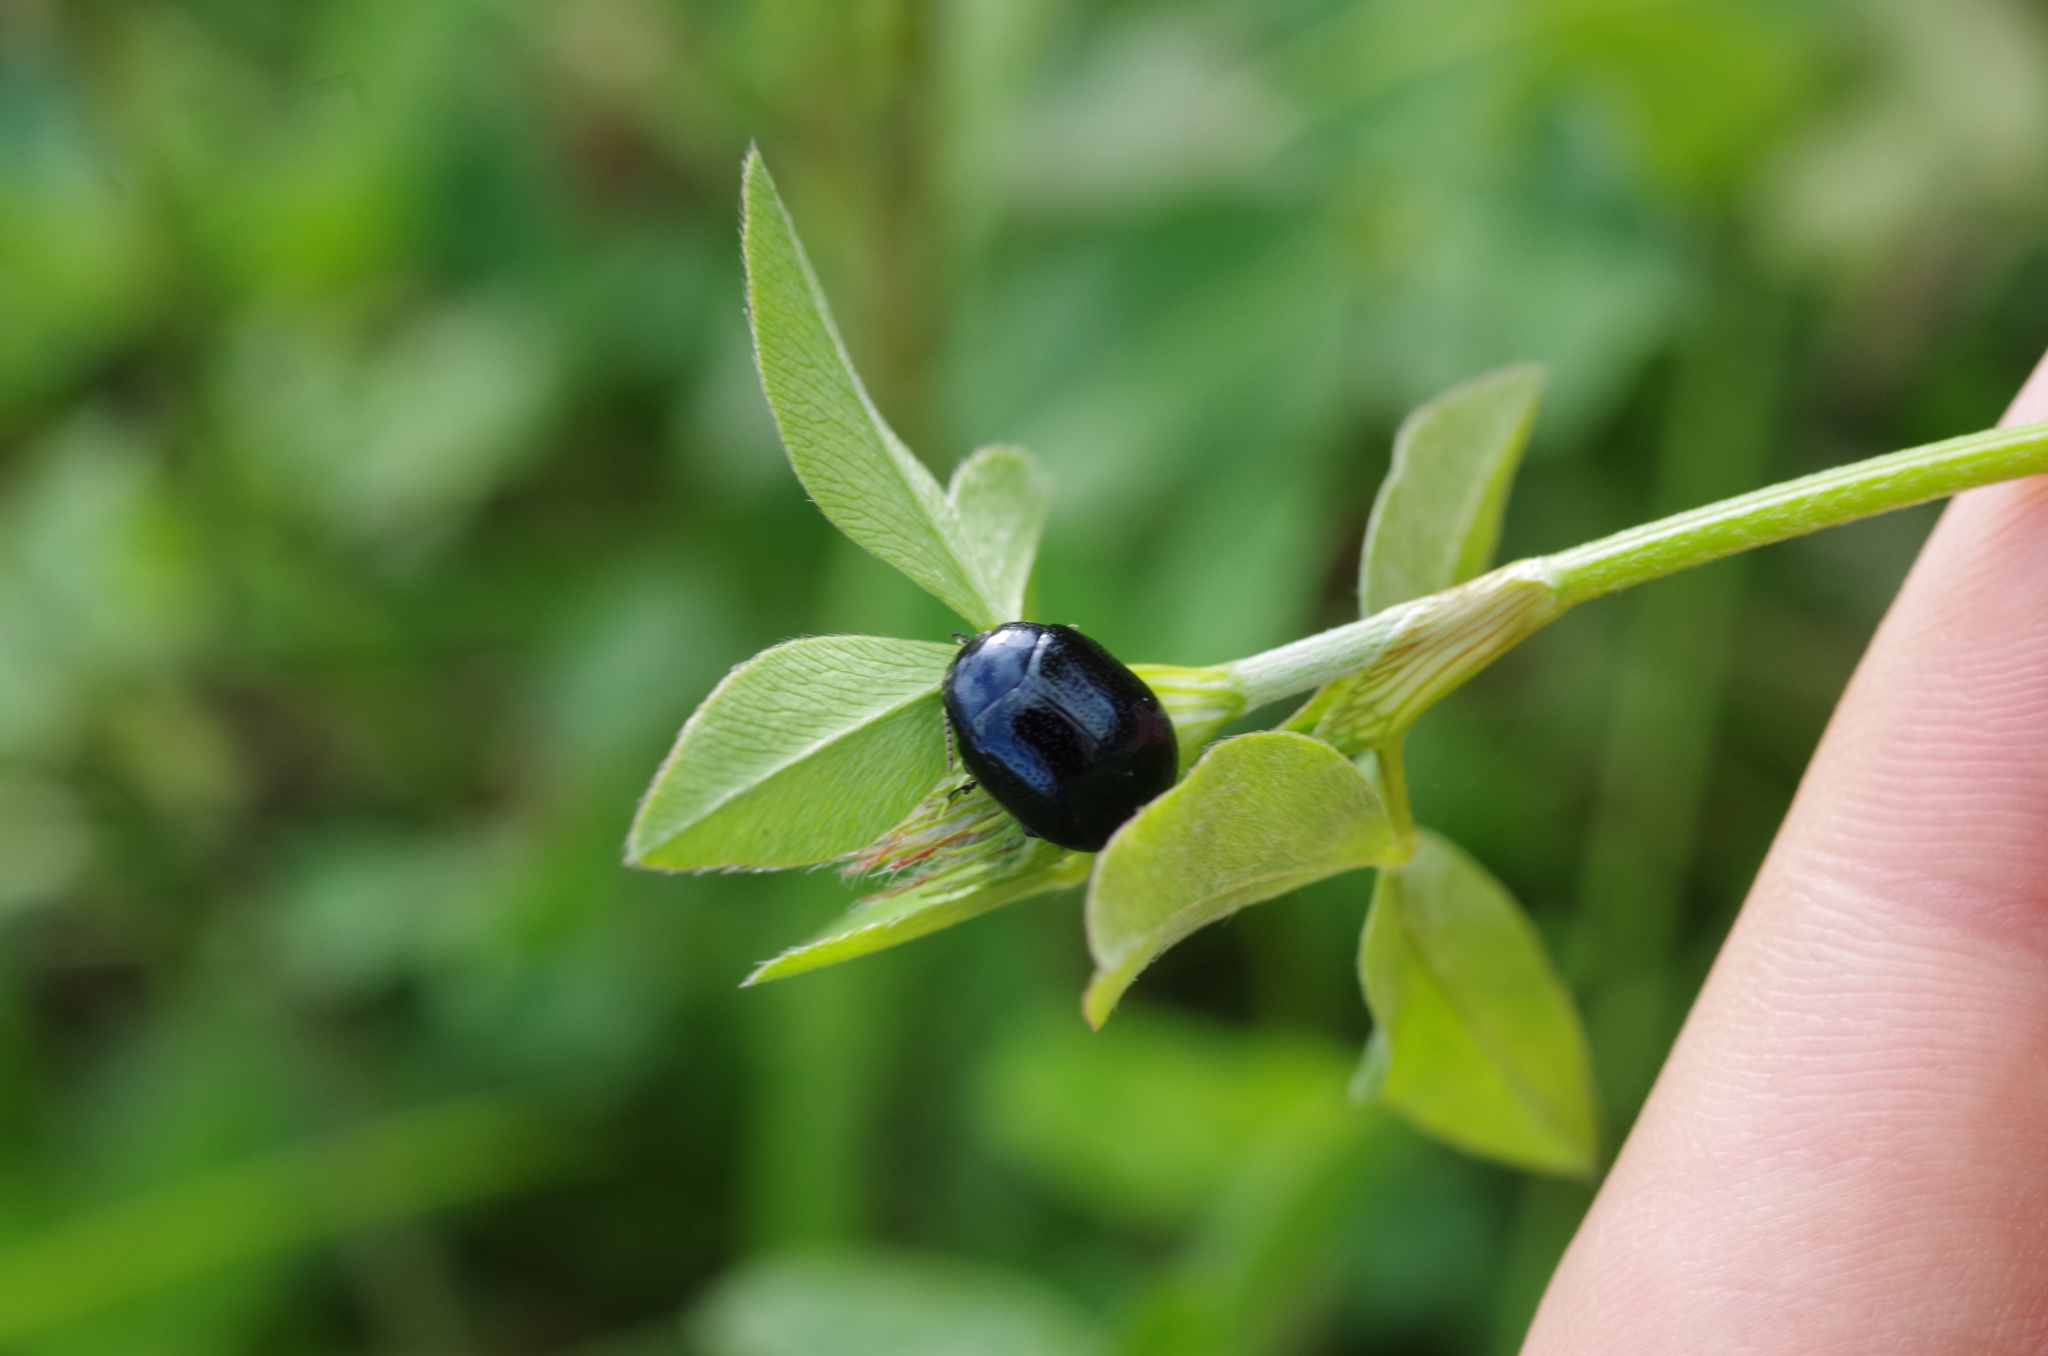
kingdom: Animalia
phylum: Arthropoda
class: Insecta
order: Coleoptera
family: Chrysomelidae
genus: Chrysolina
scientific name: Chrysolina haemoptera
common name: Plantain leaf beetle
